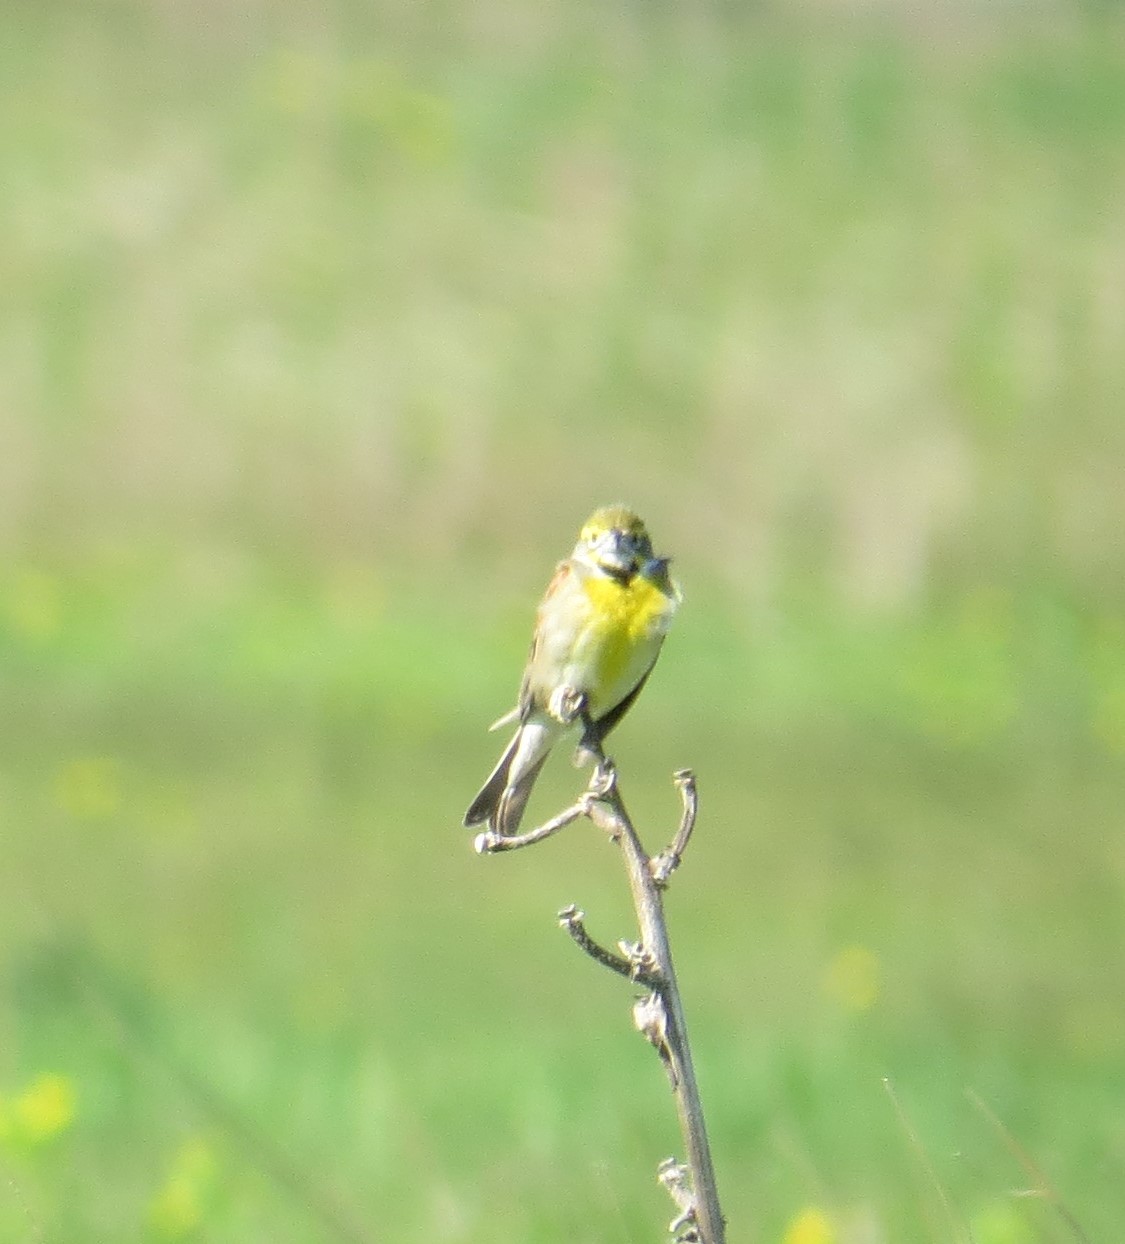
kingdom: Animalia
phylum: Chordata
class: Aves
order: Passeriformes
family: Cardinalidae
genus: Spiza
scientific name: Spiza americana
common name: Dickcissel
